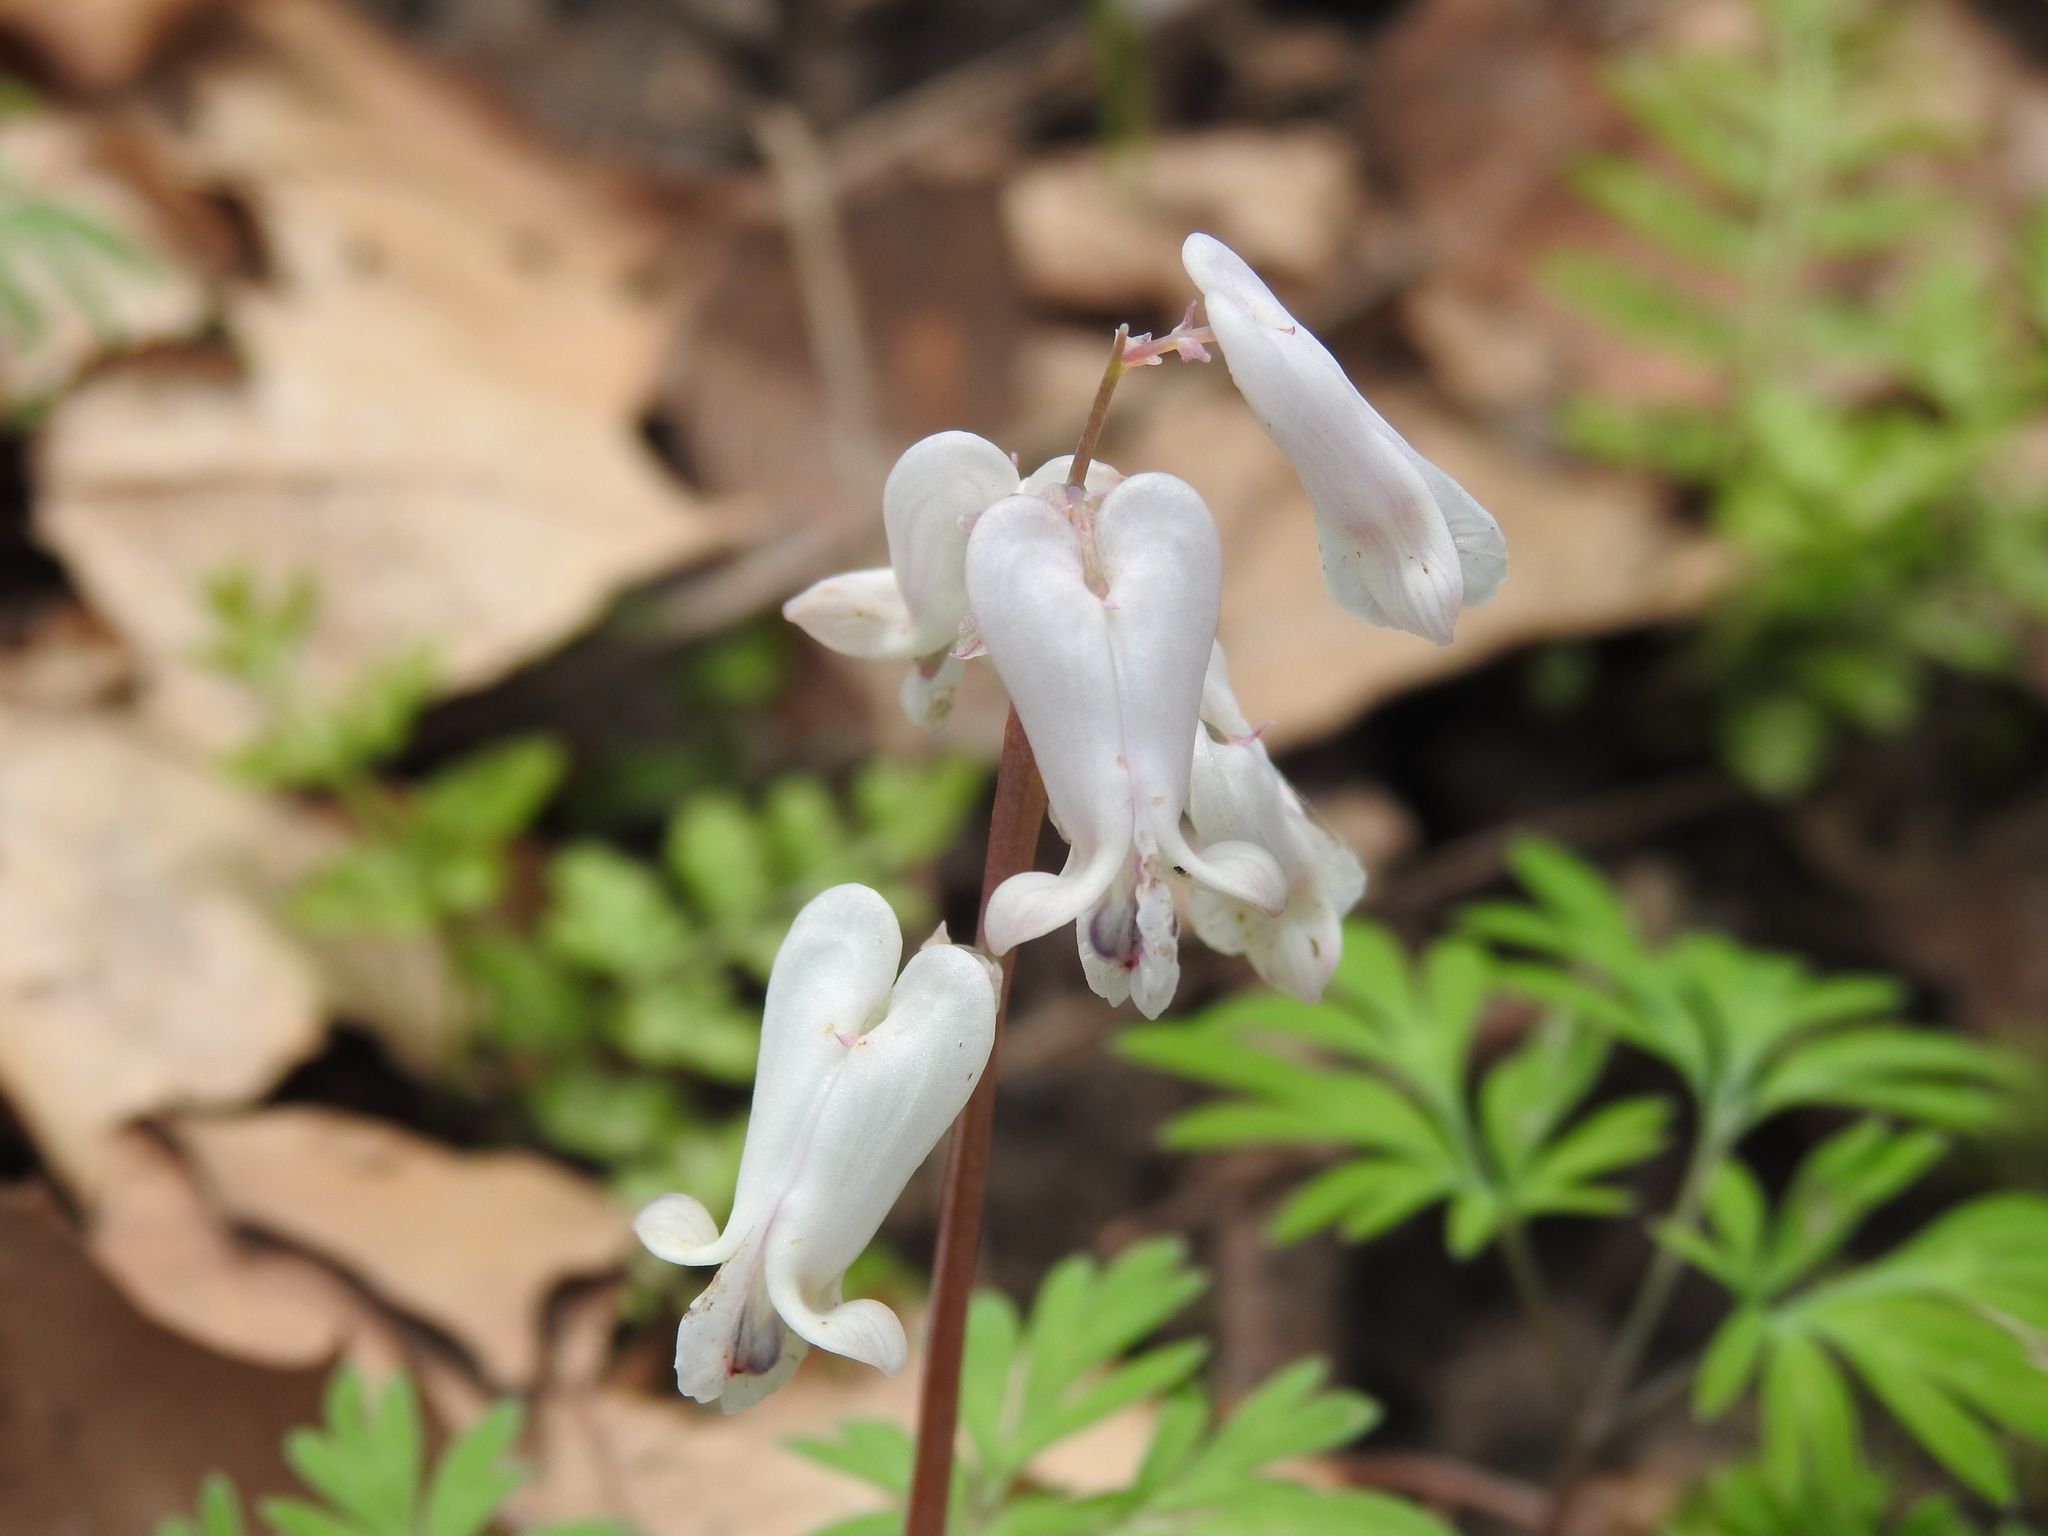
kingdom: Plantae
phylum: Tracheophyta
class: Magnoliopsida
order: Ranunculales
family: Papaveraceae
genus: Dicentra
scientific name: Dicentra canadensis
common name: Squirrel-corn
